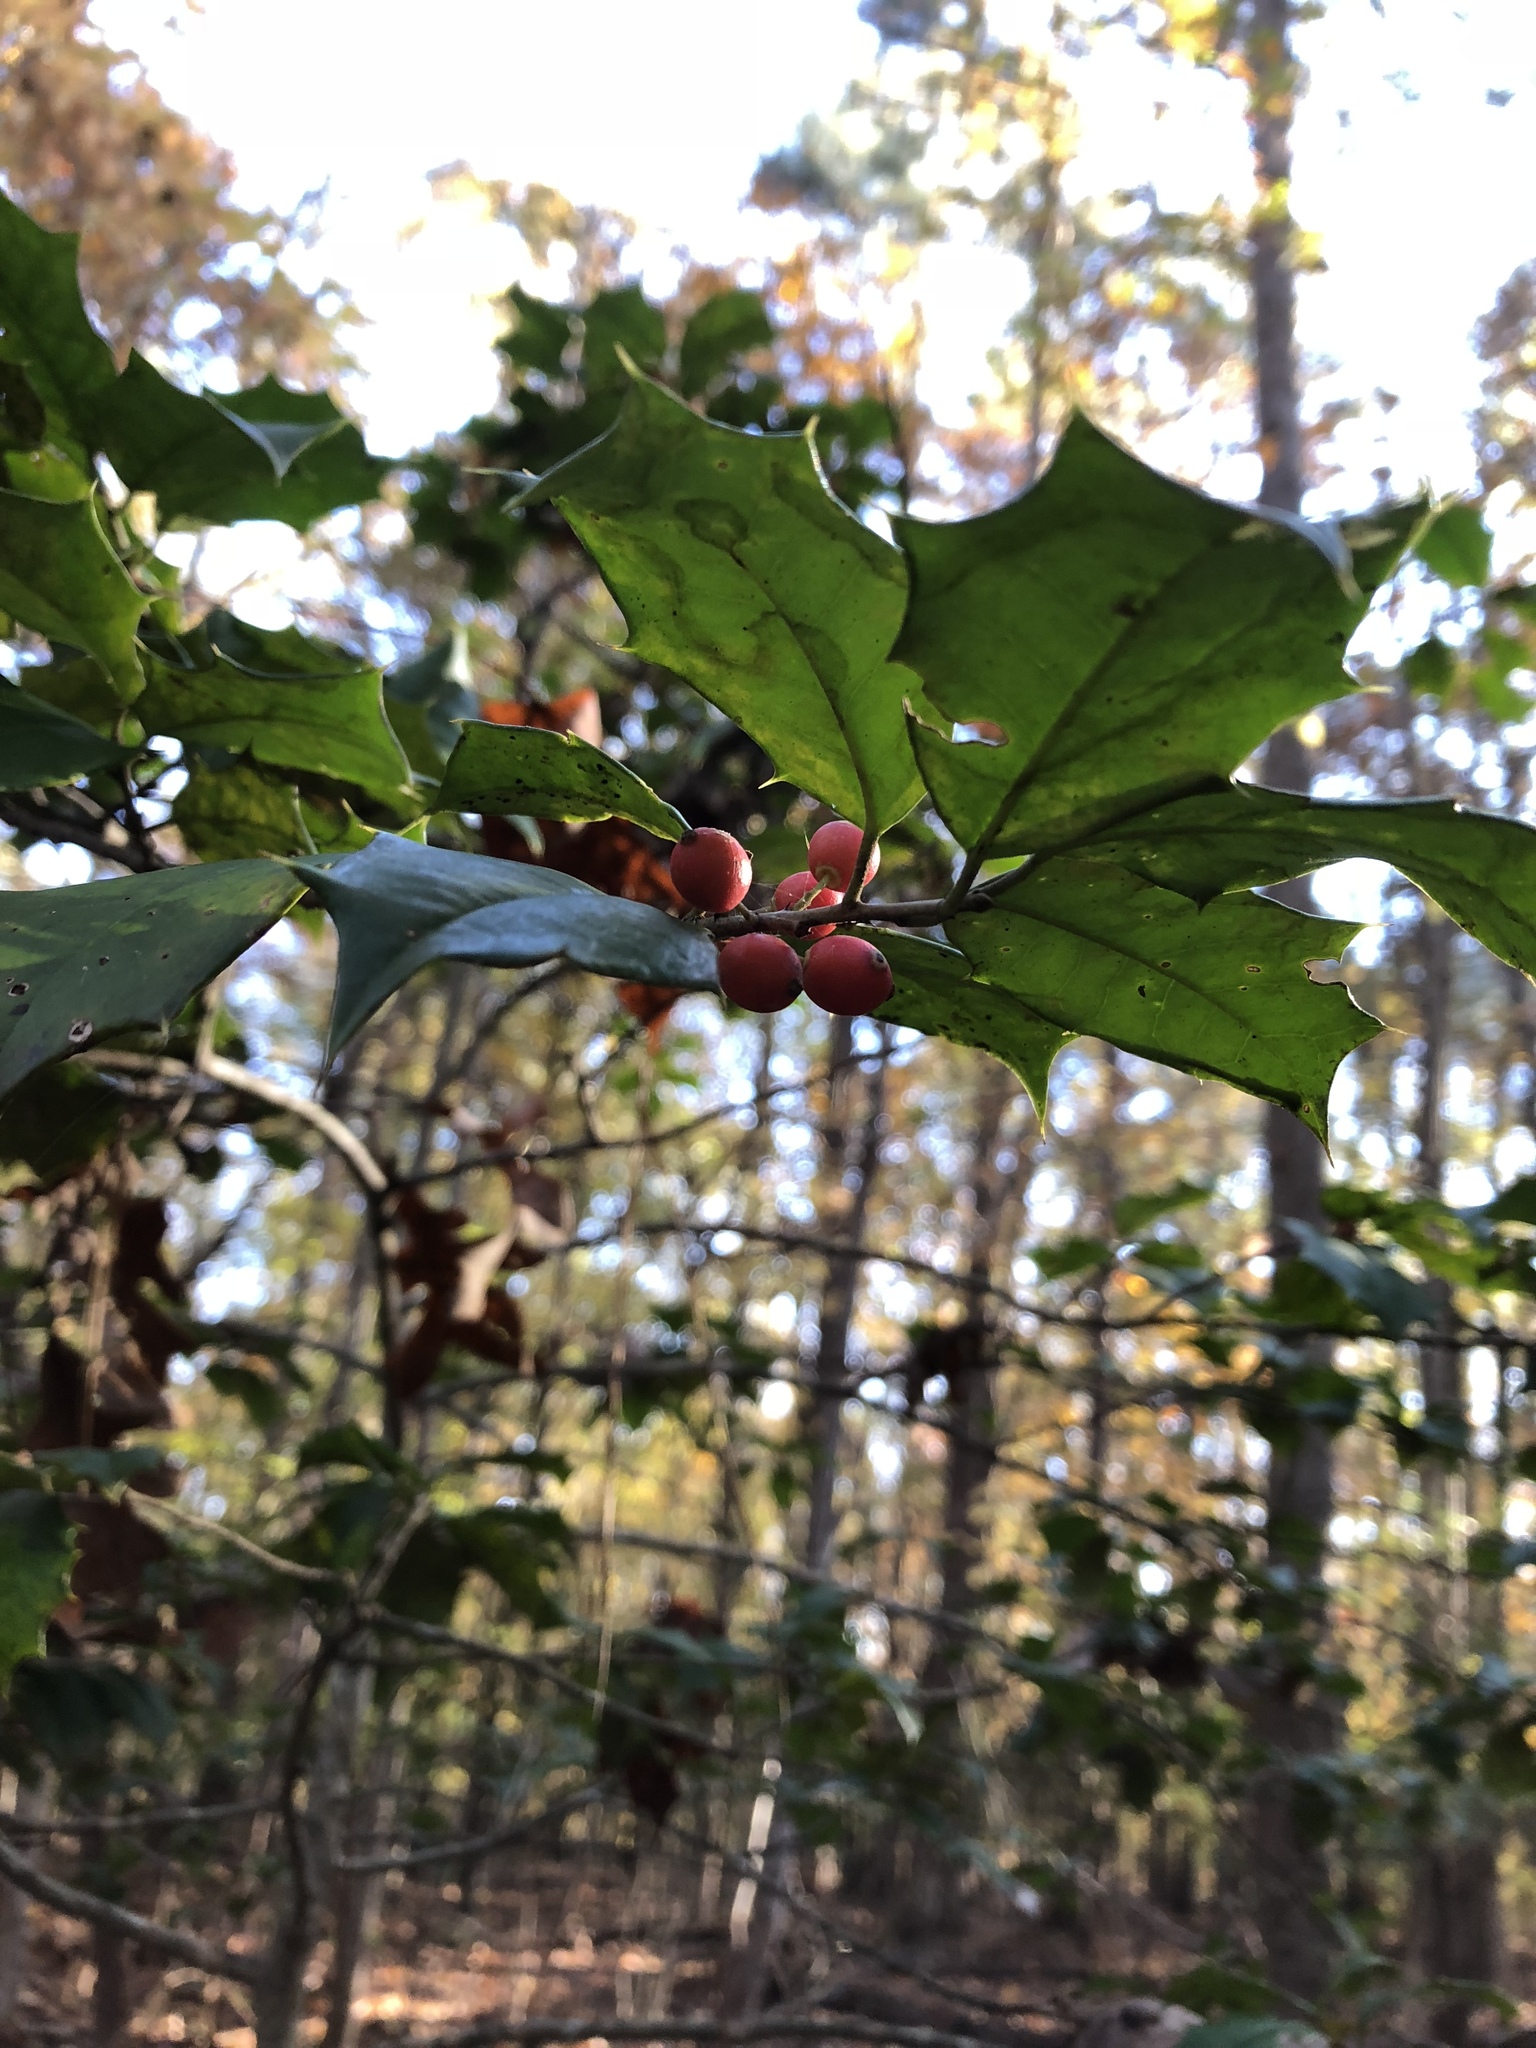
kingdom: Plantae
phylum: Tracheophyta
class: Magnoliopsida
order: Aquifoliales
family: Aquifoliaceae
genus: Ilex
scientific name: Ilex opaca
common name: American holly
